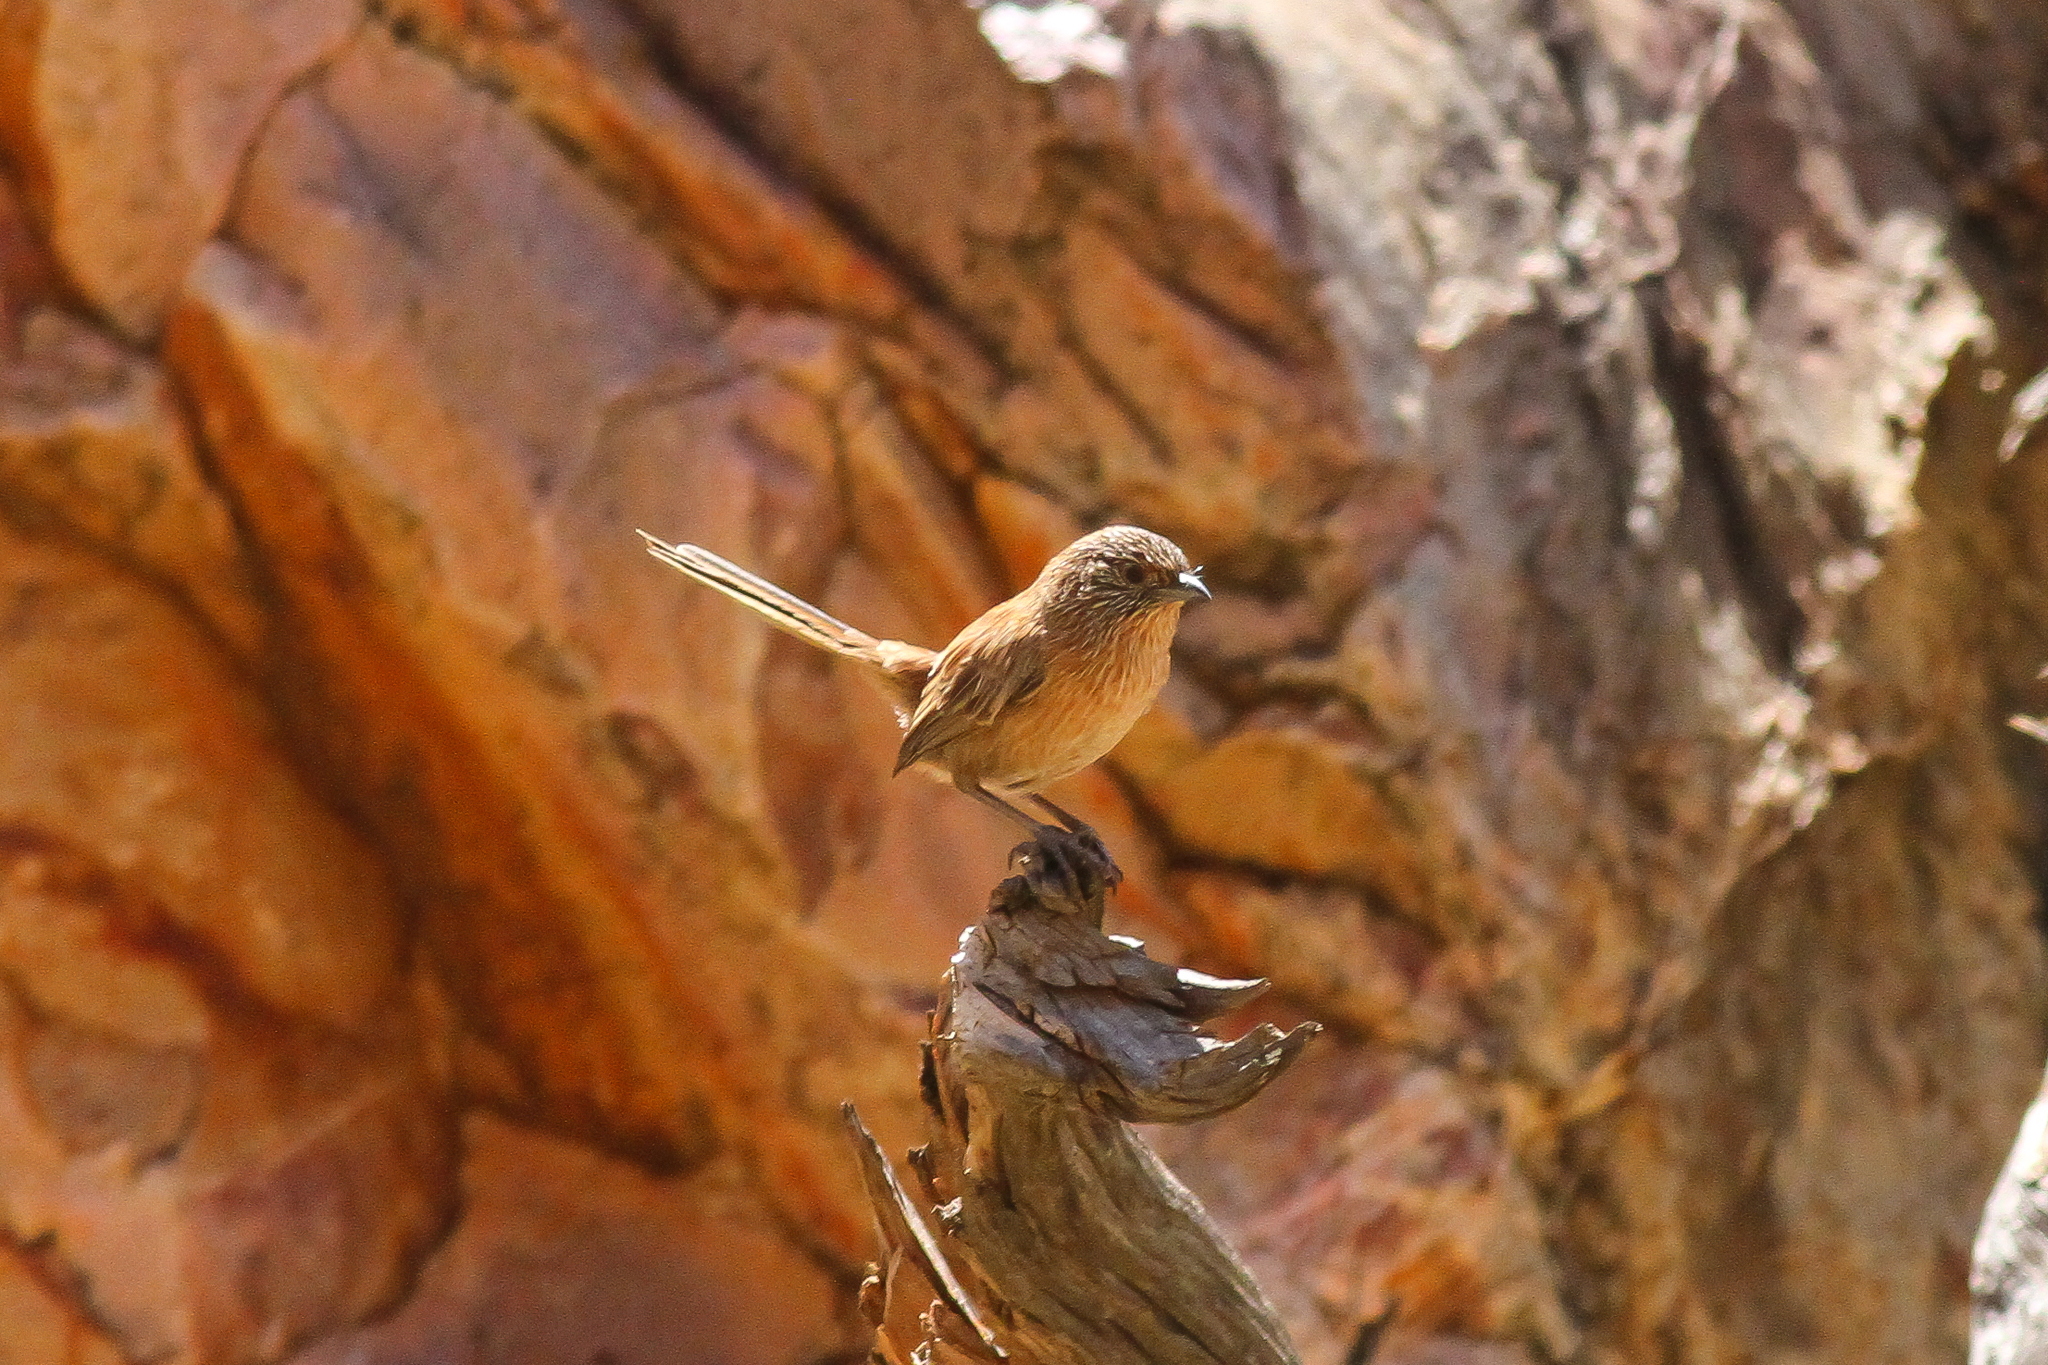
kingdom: Animalia
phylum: Chordata
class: Aves
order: Passeriformes
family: Maluridae
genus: Amytornis
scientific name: Amytornis purnelli
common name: Dusky grasswren
